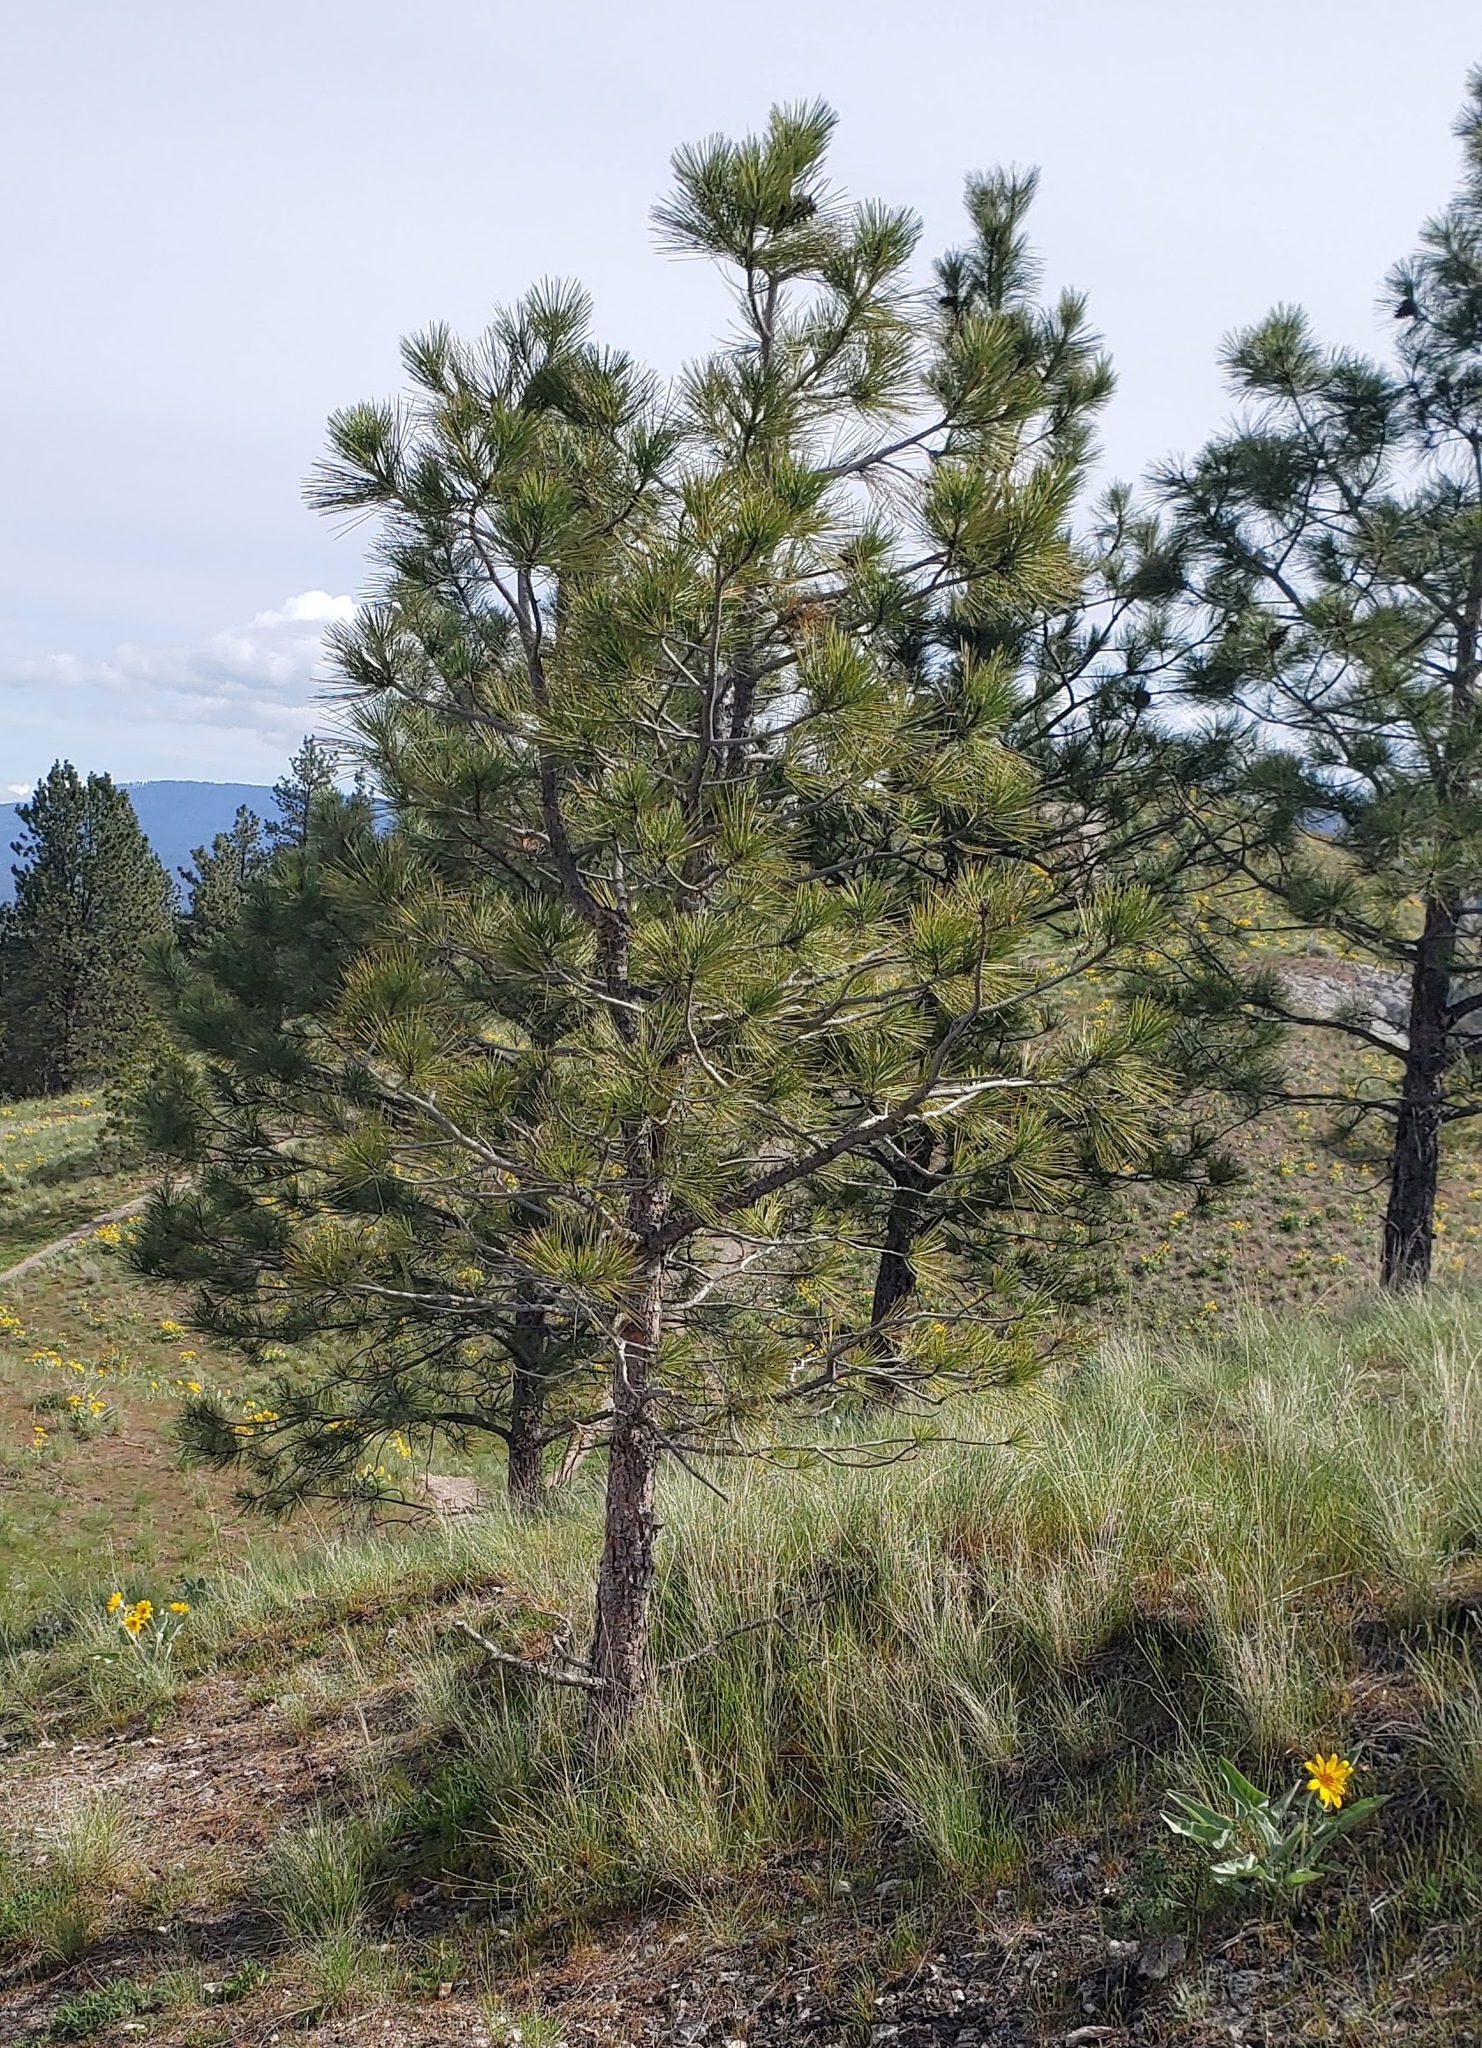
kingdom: Plantae
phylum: Tracheophyta
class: Pinopsida
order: Pinales
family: Pinaceae
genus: Pinus
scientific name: Pinus ponderosa
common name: Western yellow-pine
